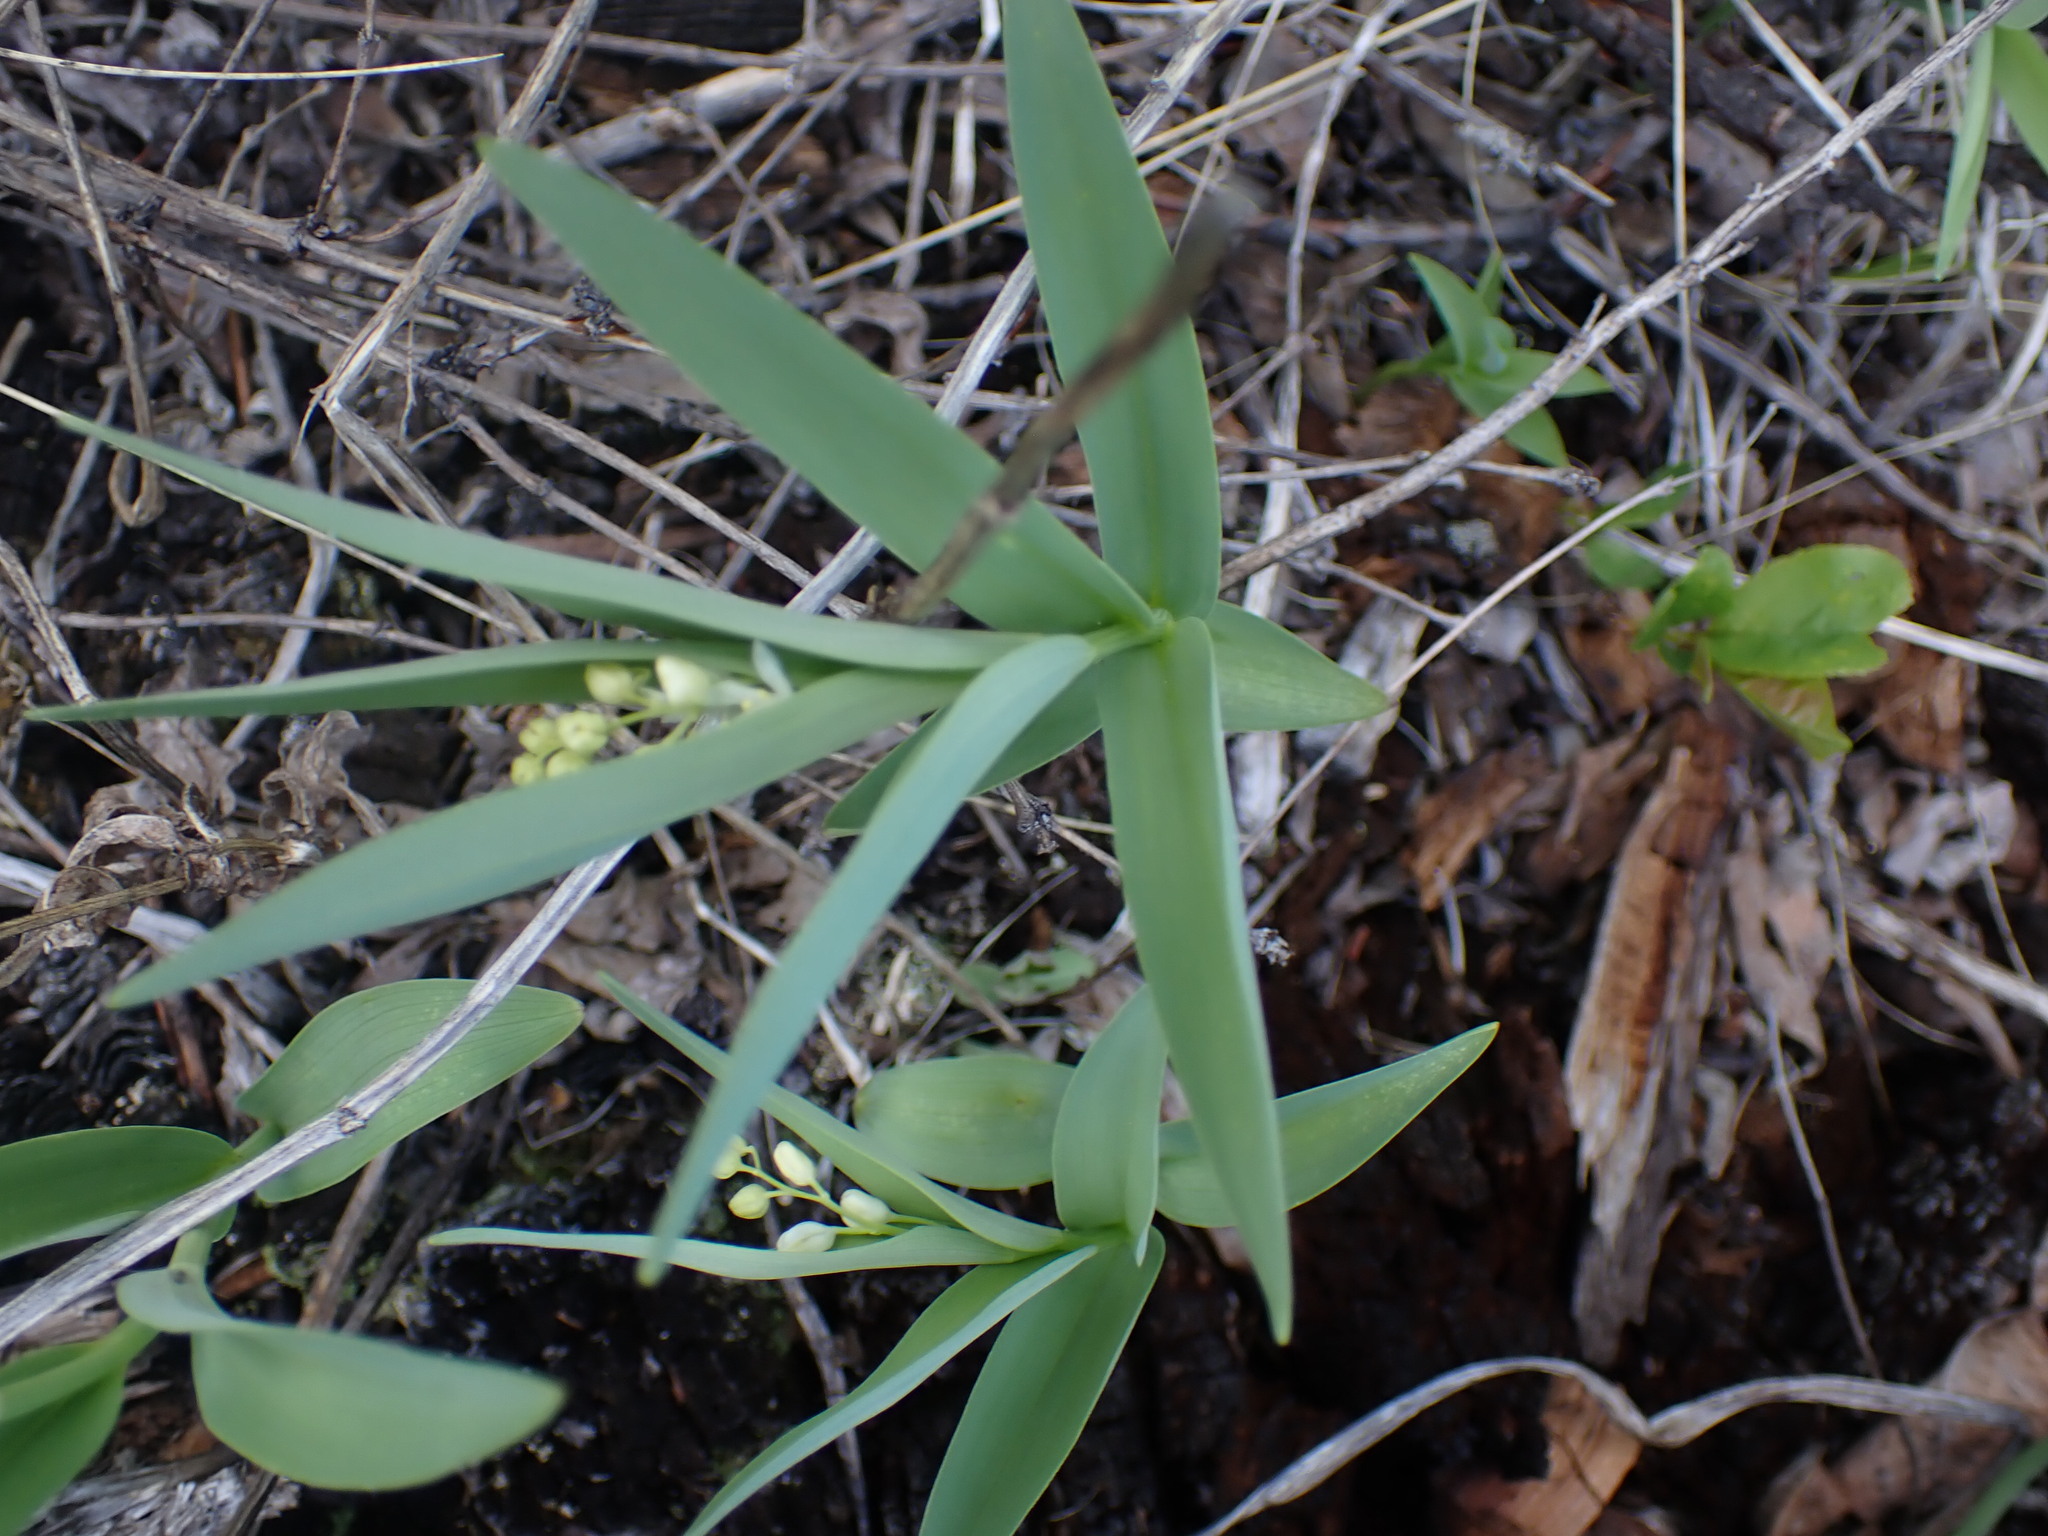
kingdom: Plantae
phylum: Tracheophyta
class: Liliopsida
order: Asparagales
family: Asparagaceae
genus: Maianthemum
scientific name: Maianthemum stellatum
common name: Little false solomon's seal
